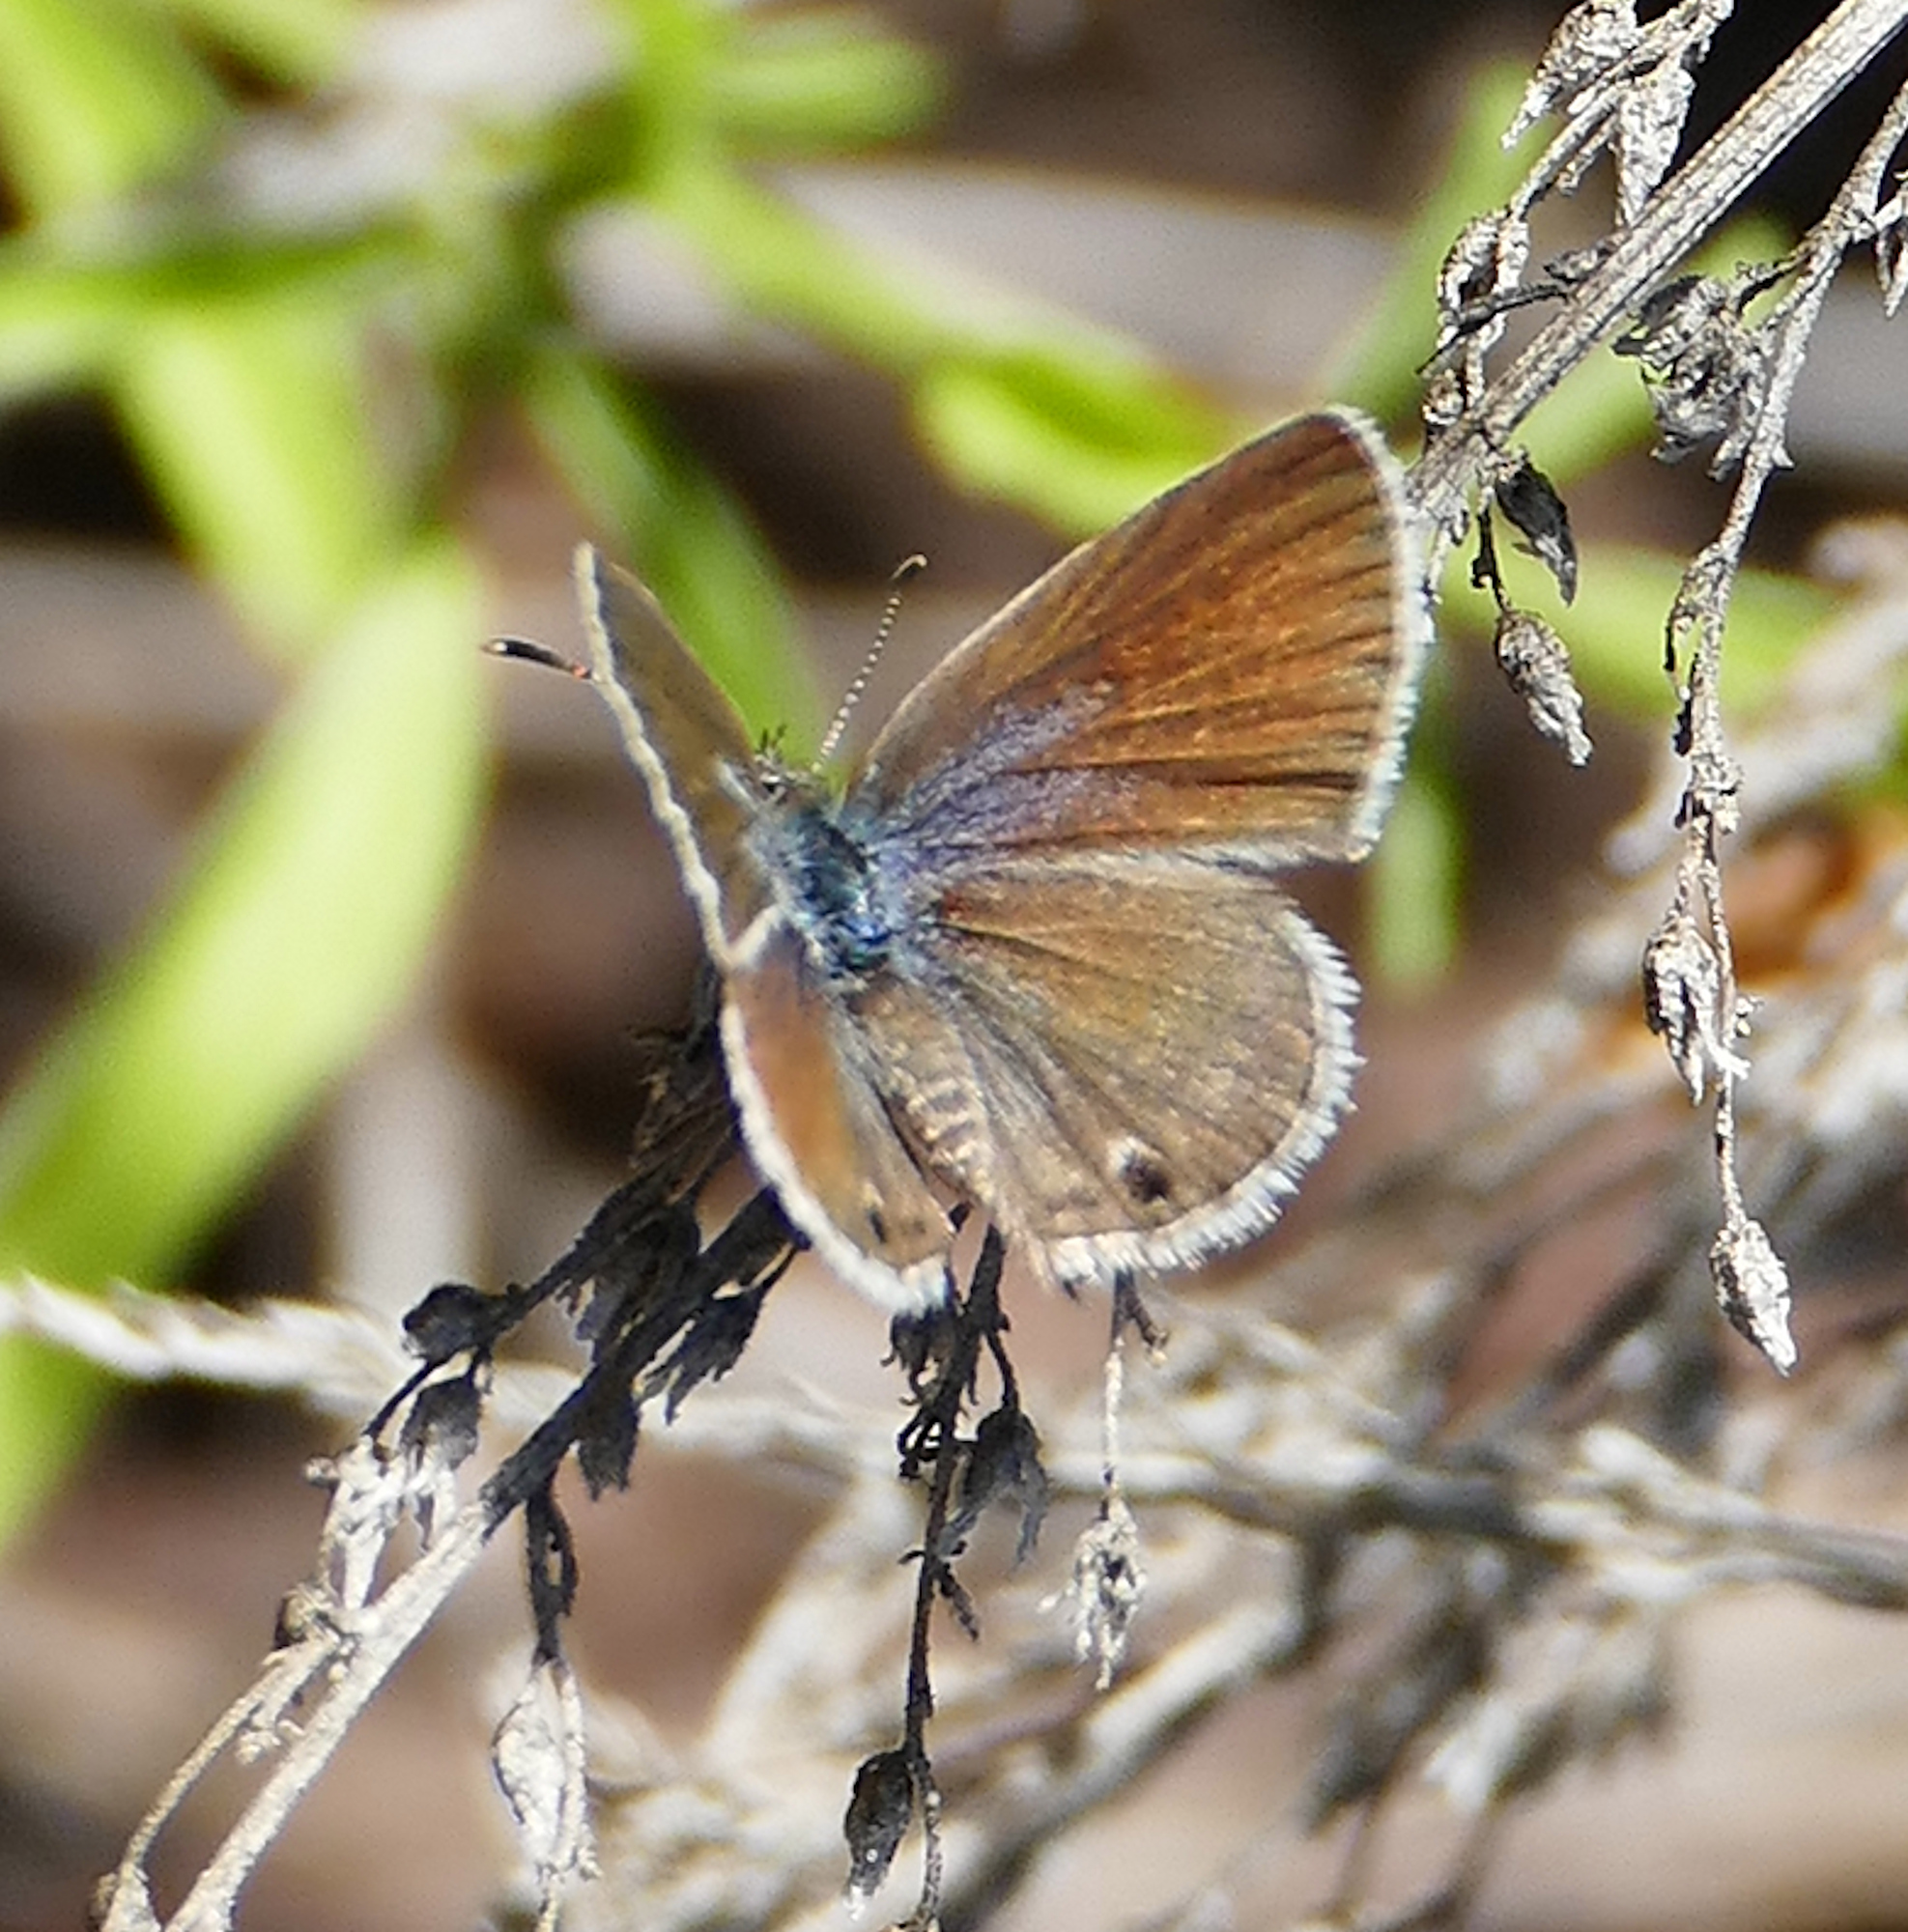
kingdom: Animalia
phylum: Arthropoda
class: Insecta
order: Lepidoptera
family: Lycaenidae
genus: Echinargus
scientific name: Echinargus isola
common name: Reakirt's blue
